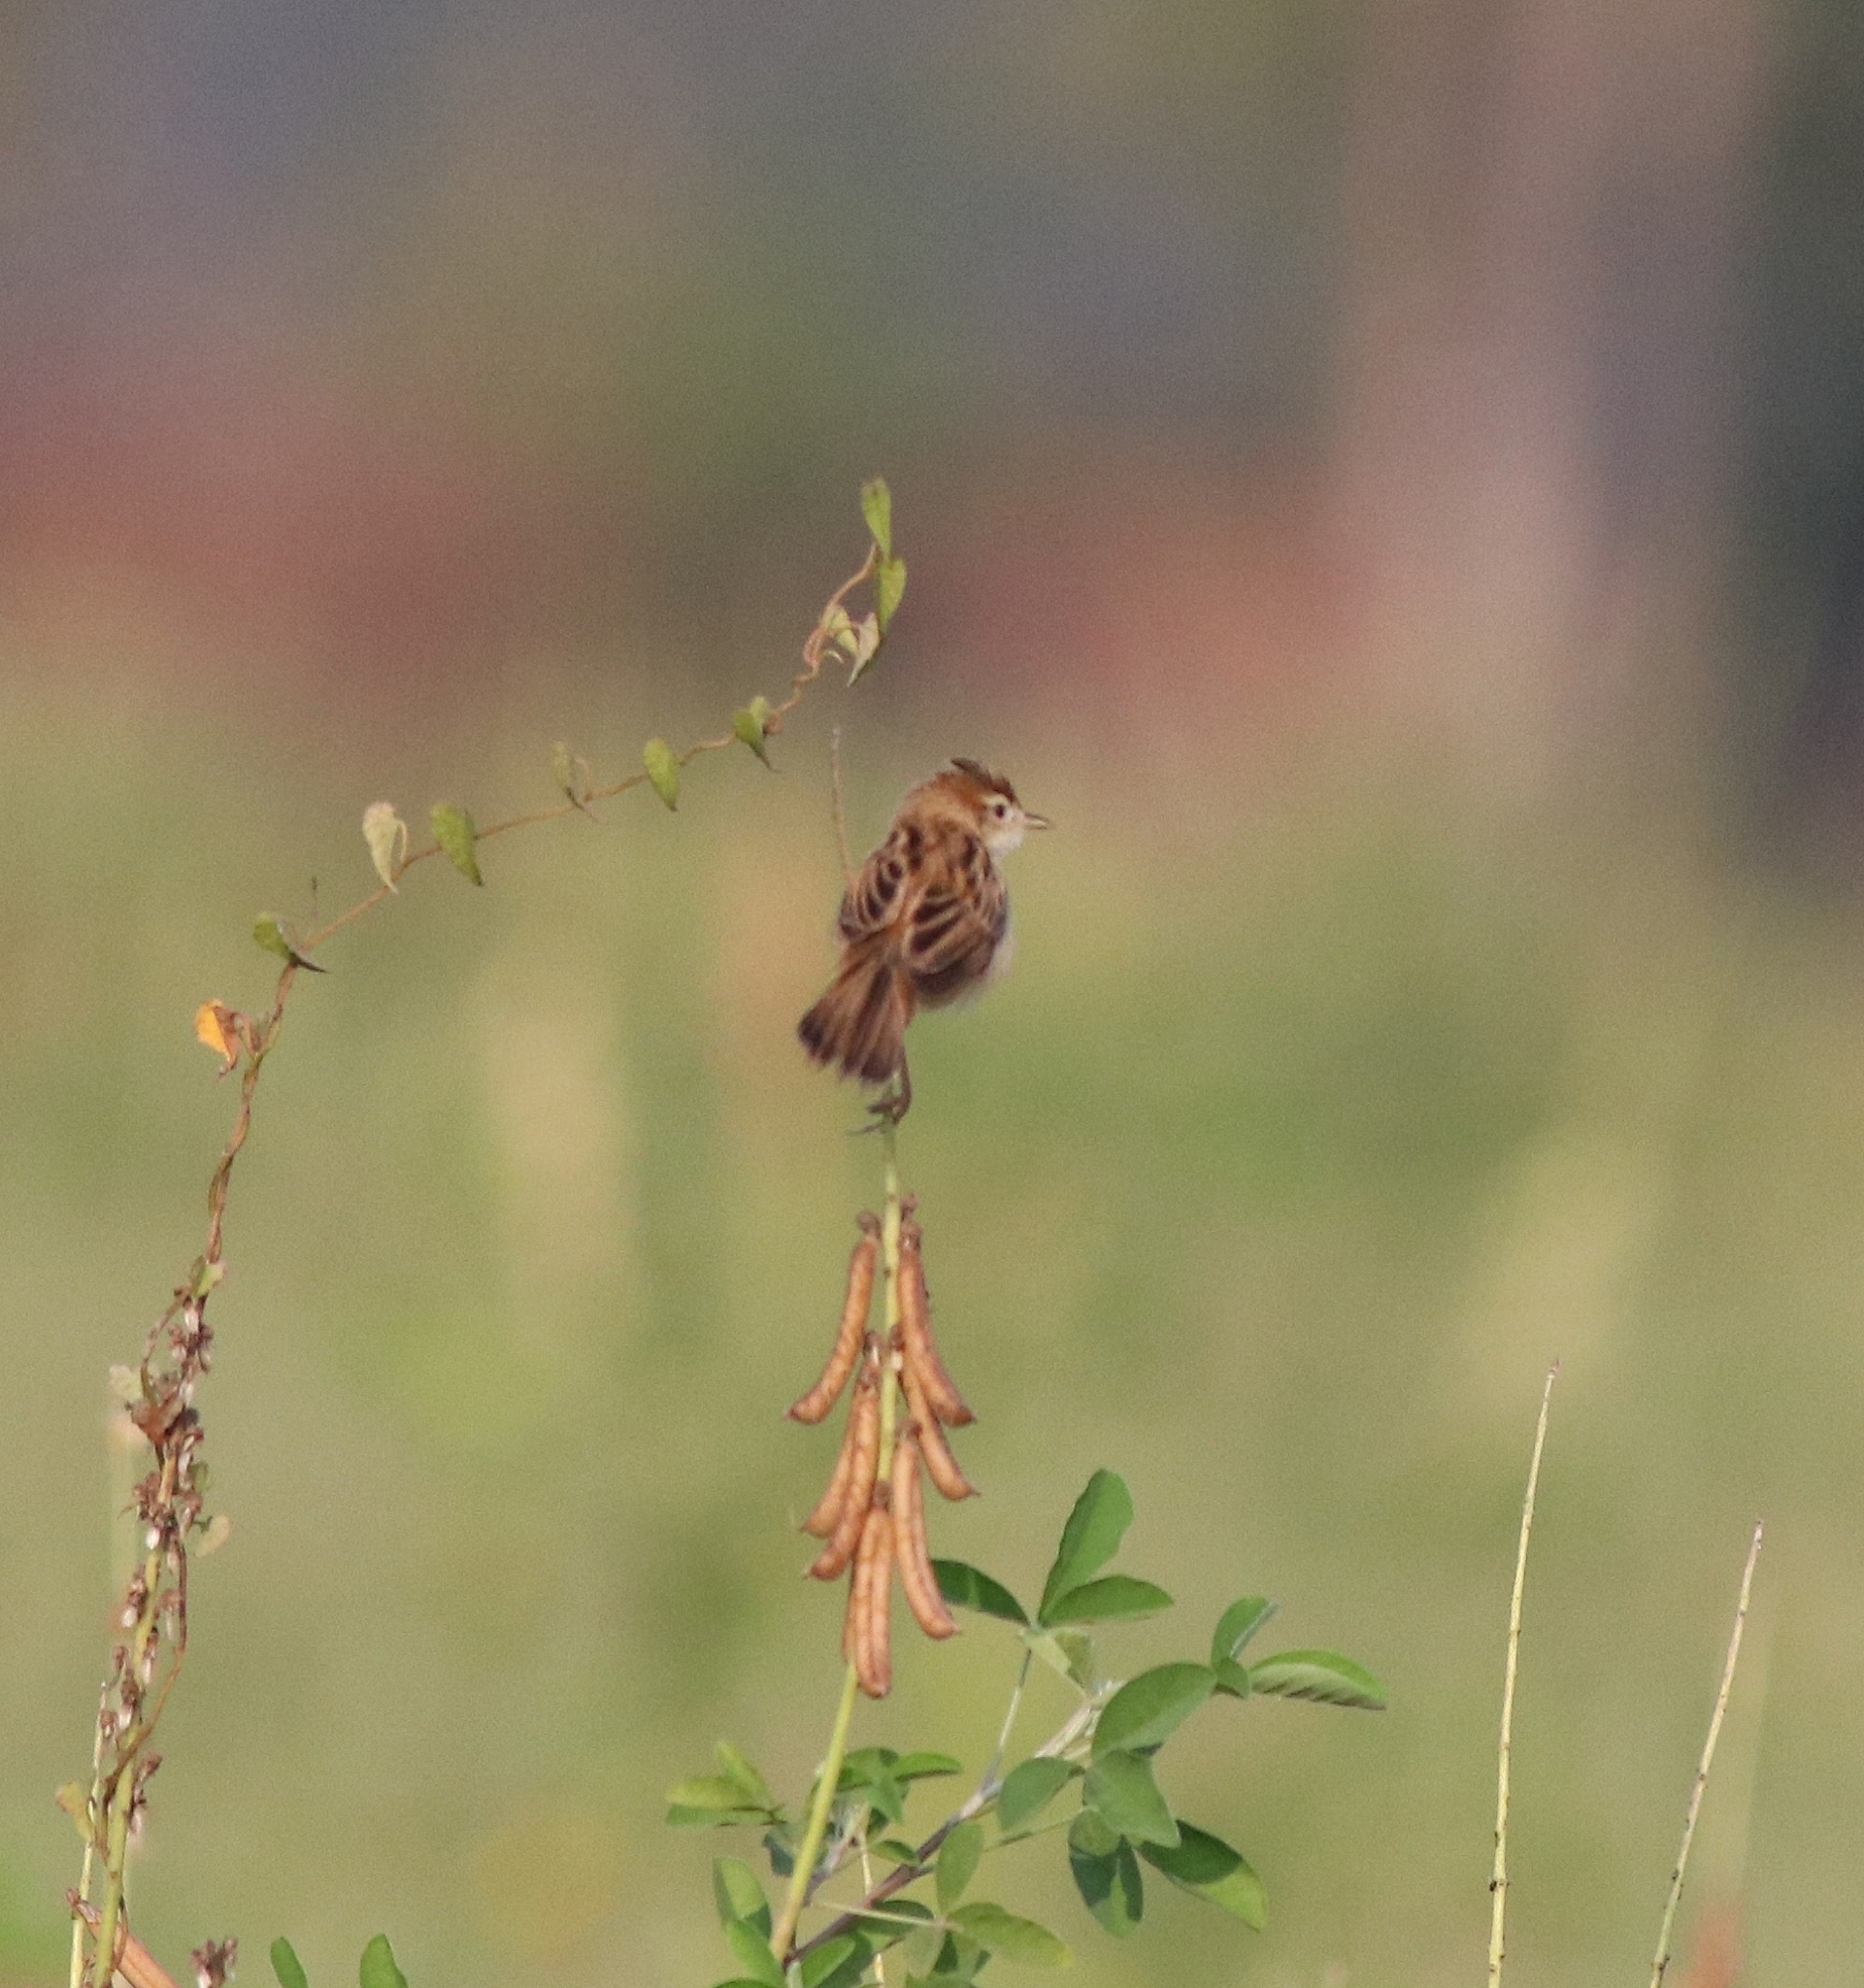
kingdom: Animalia
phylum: Chordata
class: Aves
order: Passeriformes
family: Cisticolidae
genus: Cisticola
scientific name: Cisticola juncidis
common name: Zitting cisticola
